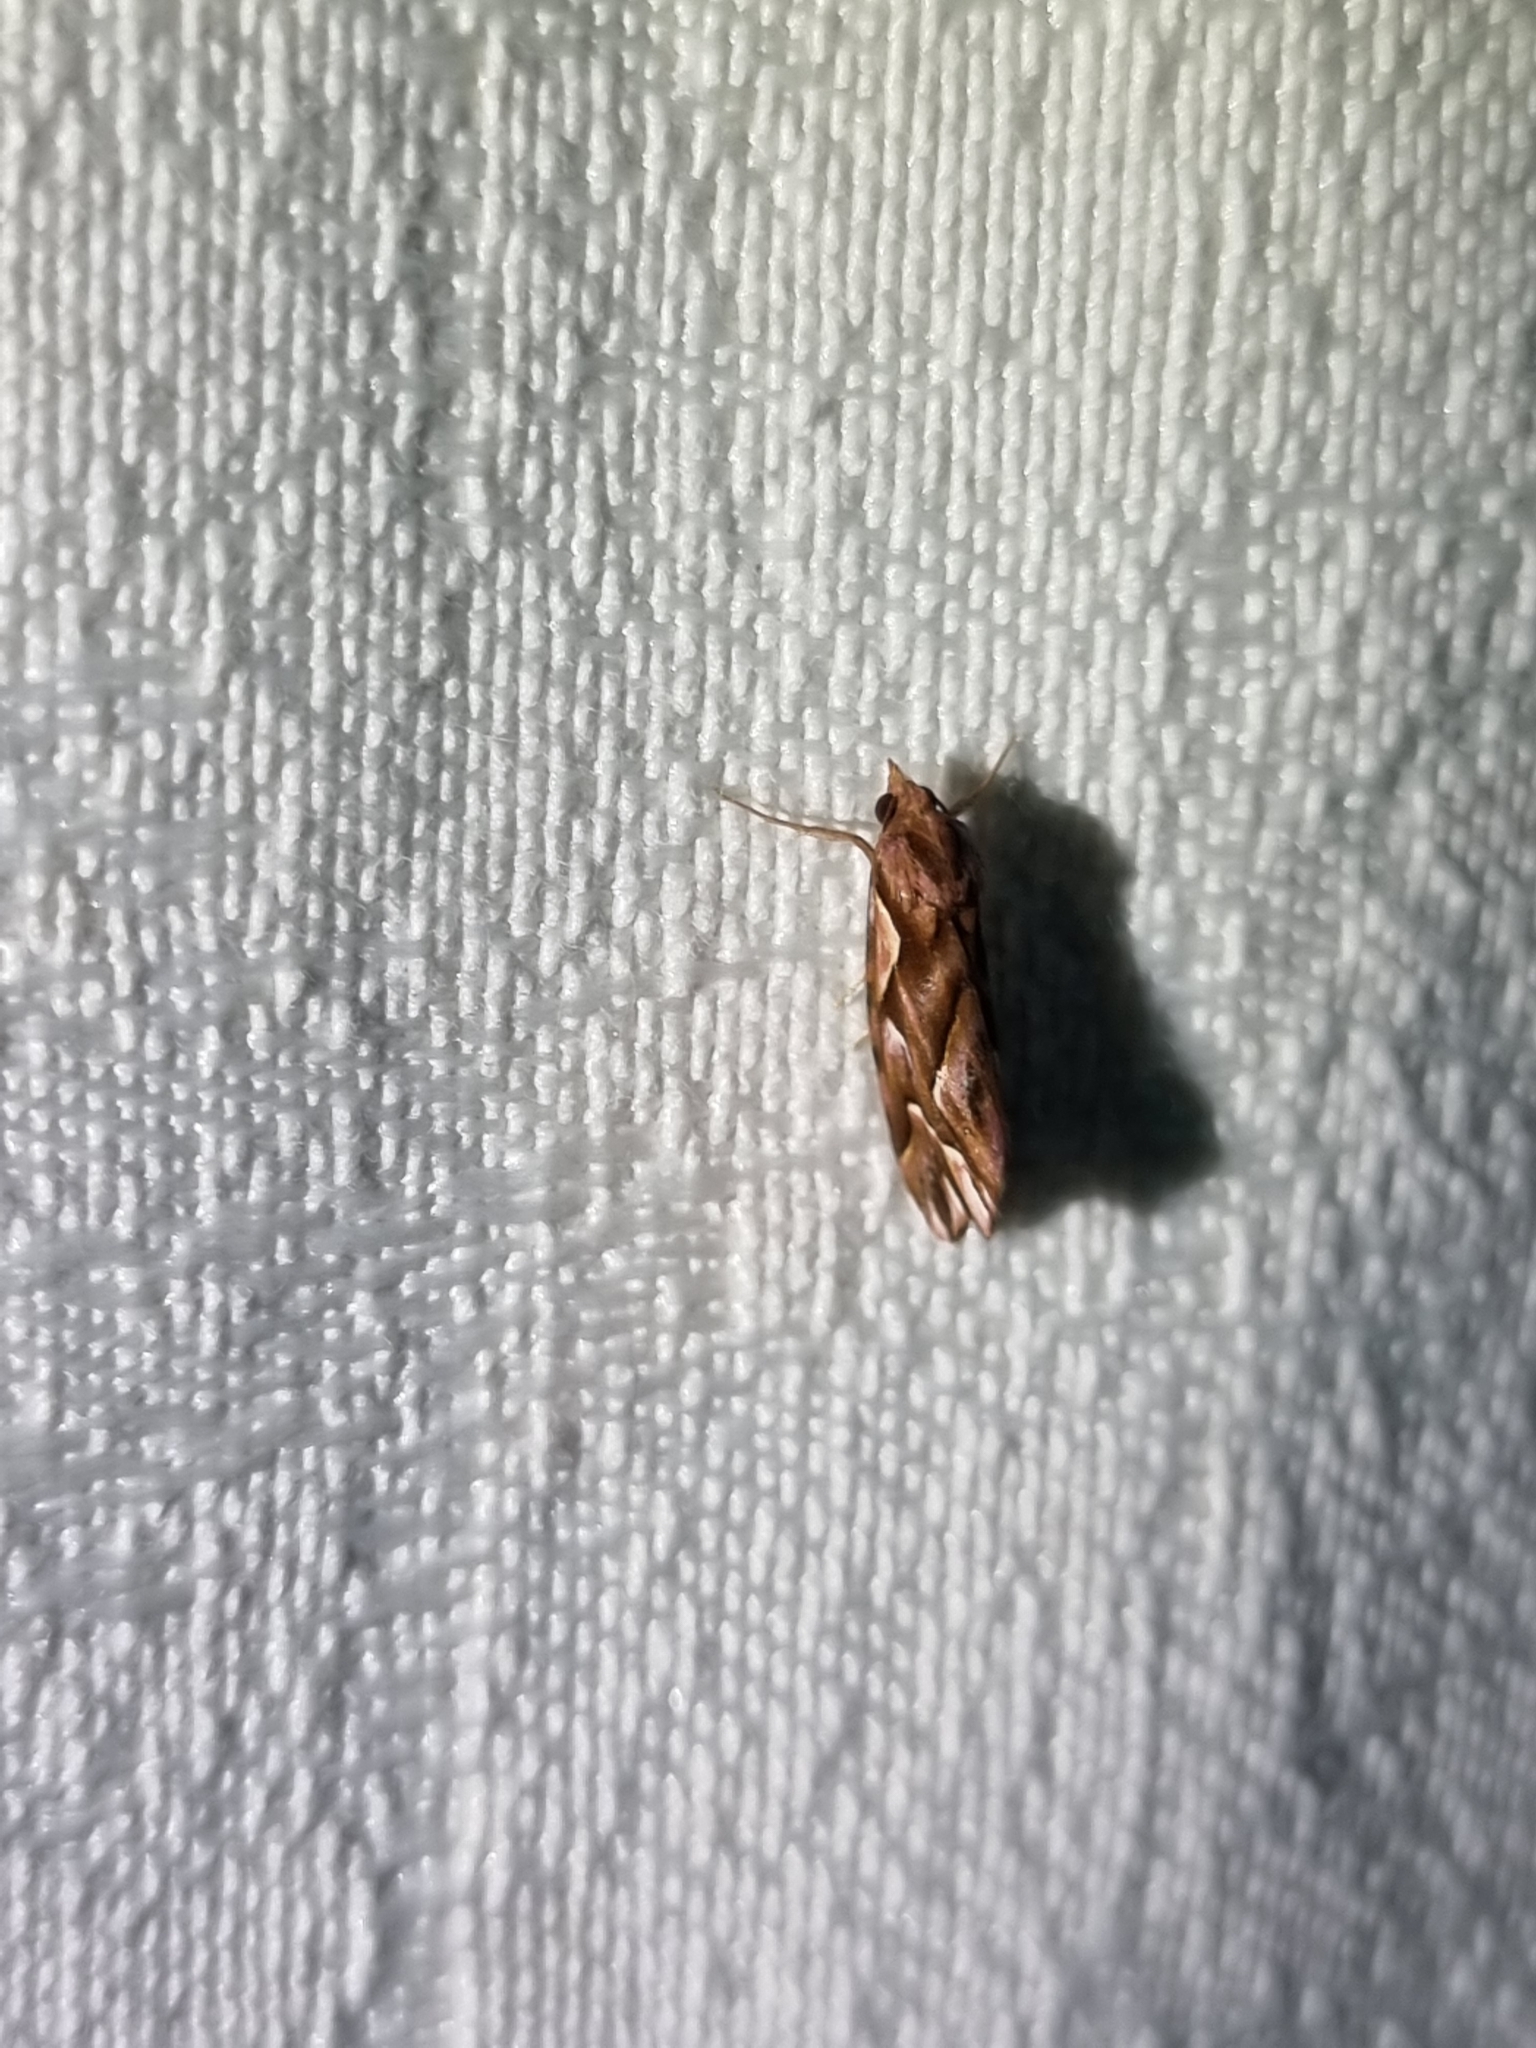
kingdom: Animalia
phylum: Arthropoda
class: Insecta
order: Lepidoptera
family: Erebidae
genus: Meyrickella
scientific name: Meyrickella torquesauria
